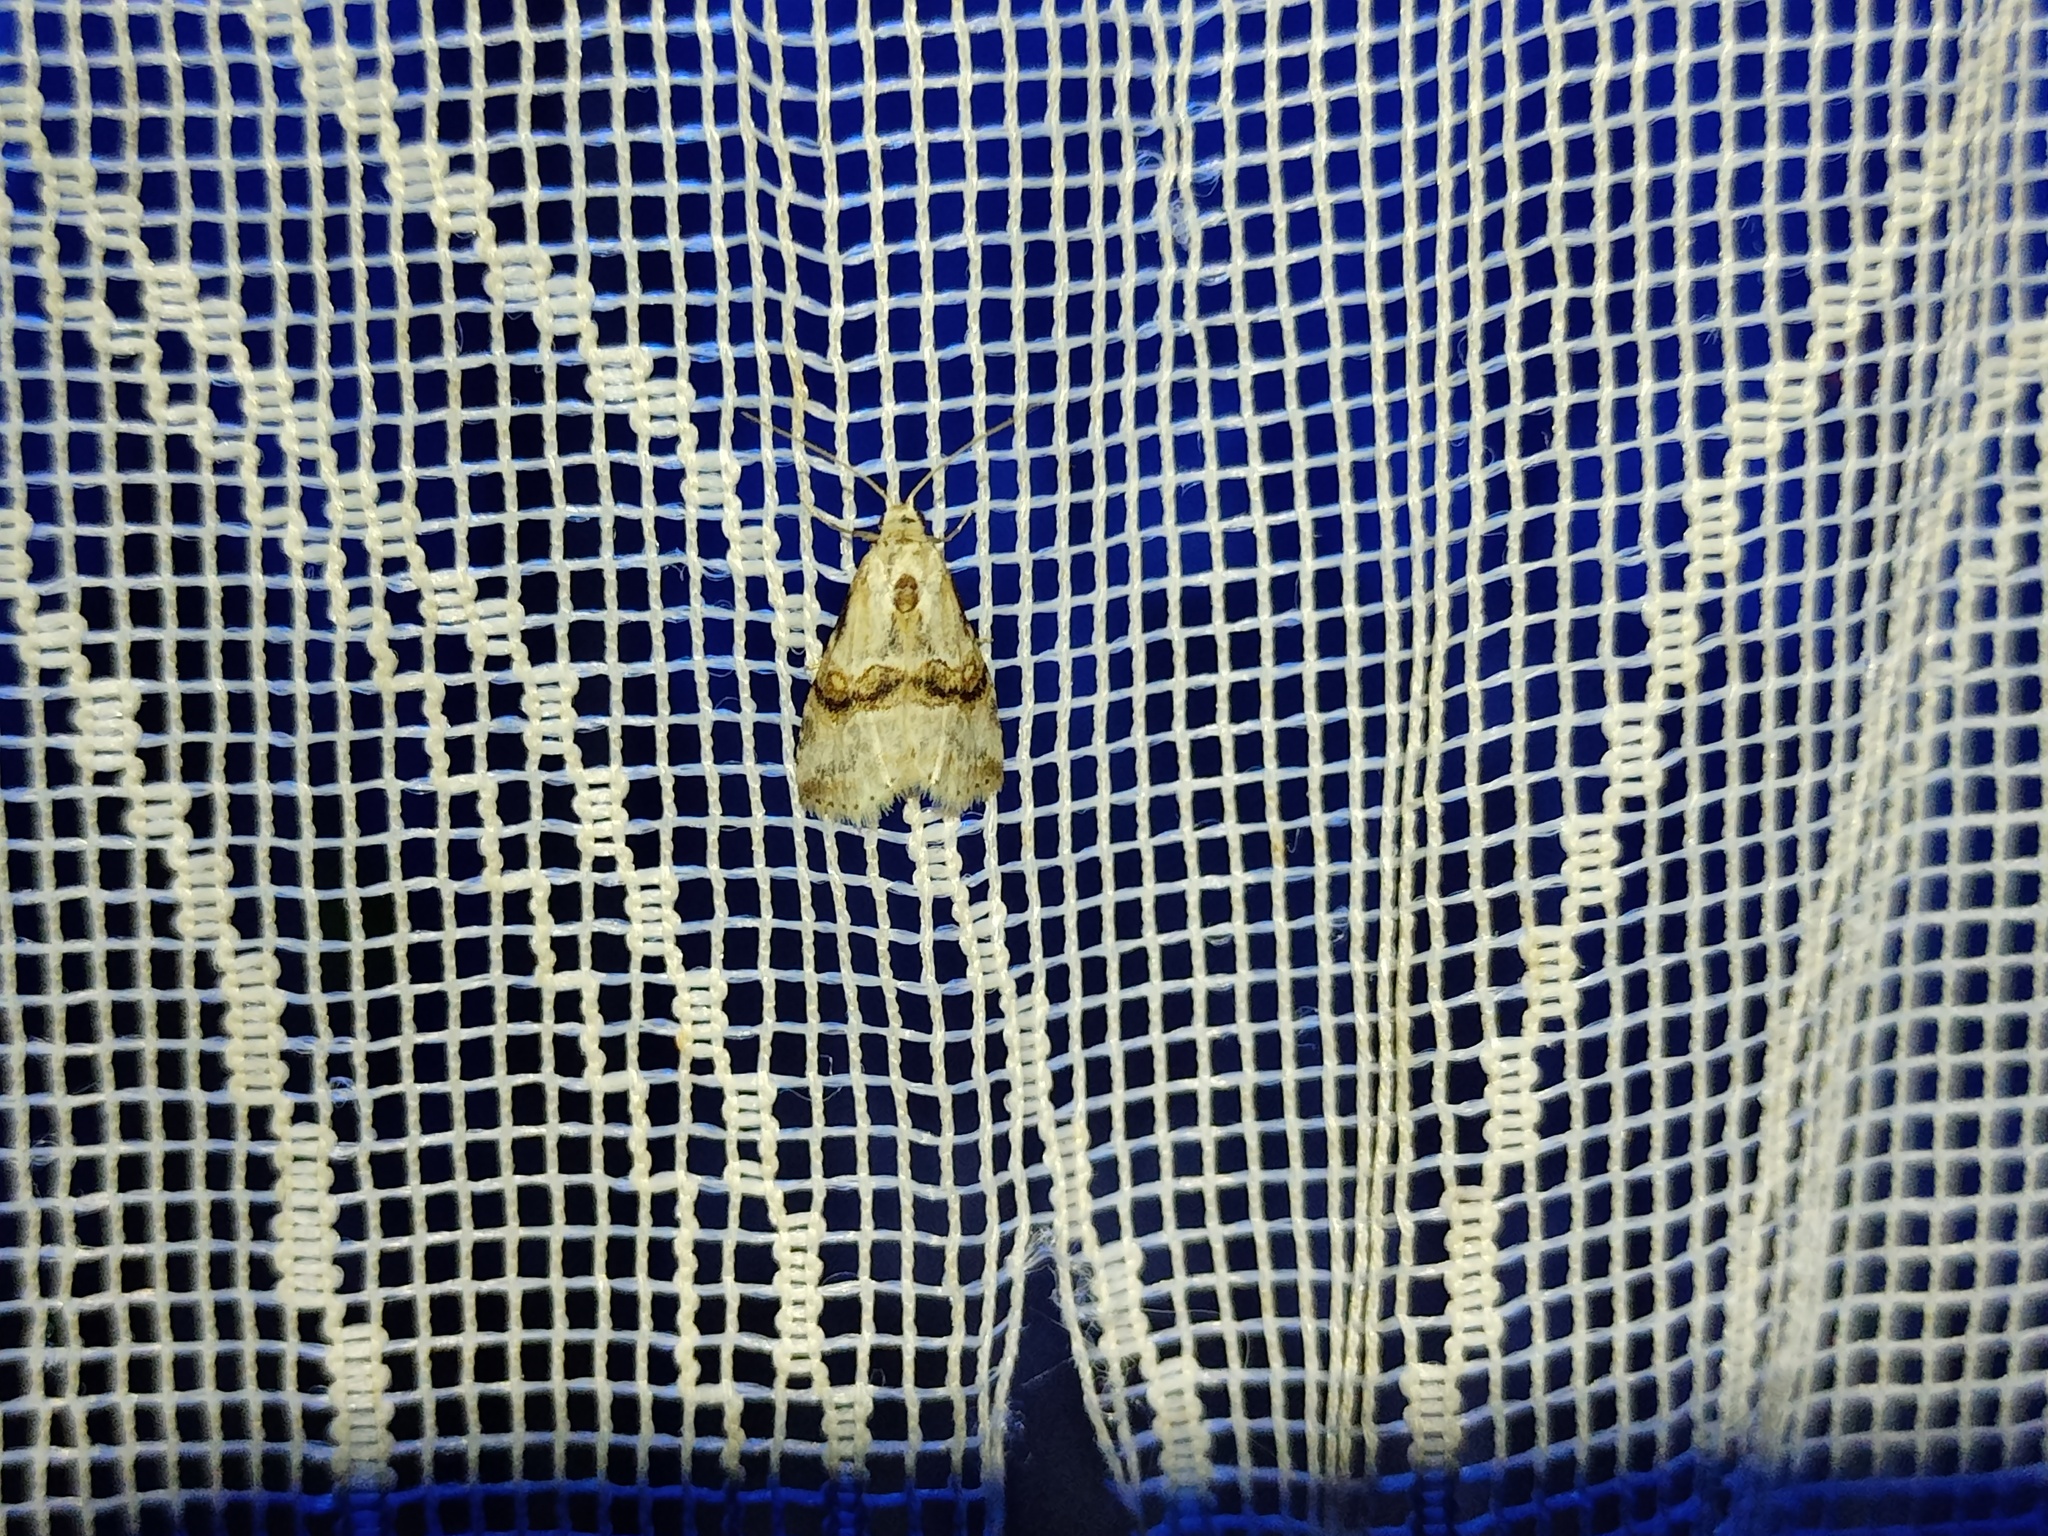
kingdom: Animalia
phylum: Arthropoda
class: Insecta
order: Lepidoptera
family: Erebidae
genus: Zebeeba
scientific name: Zebeeba falsalis
